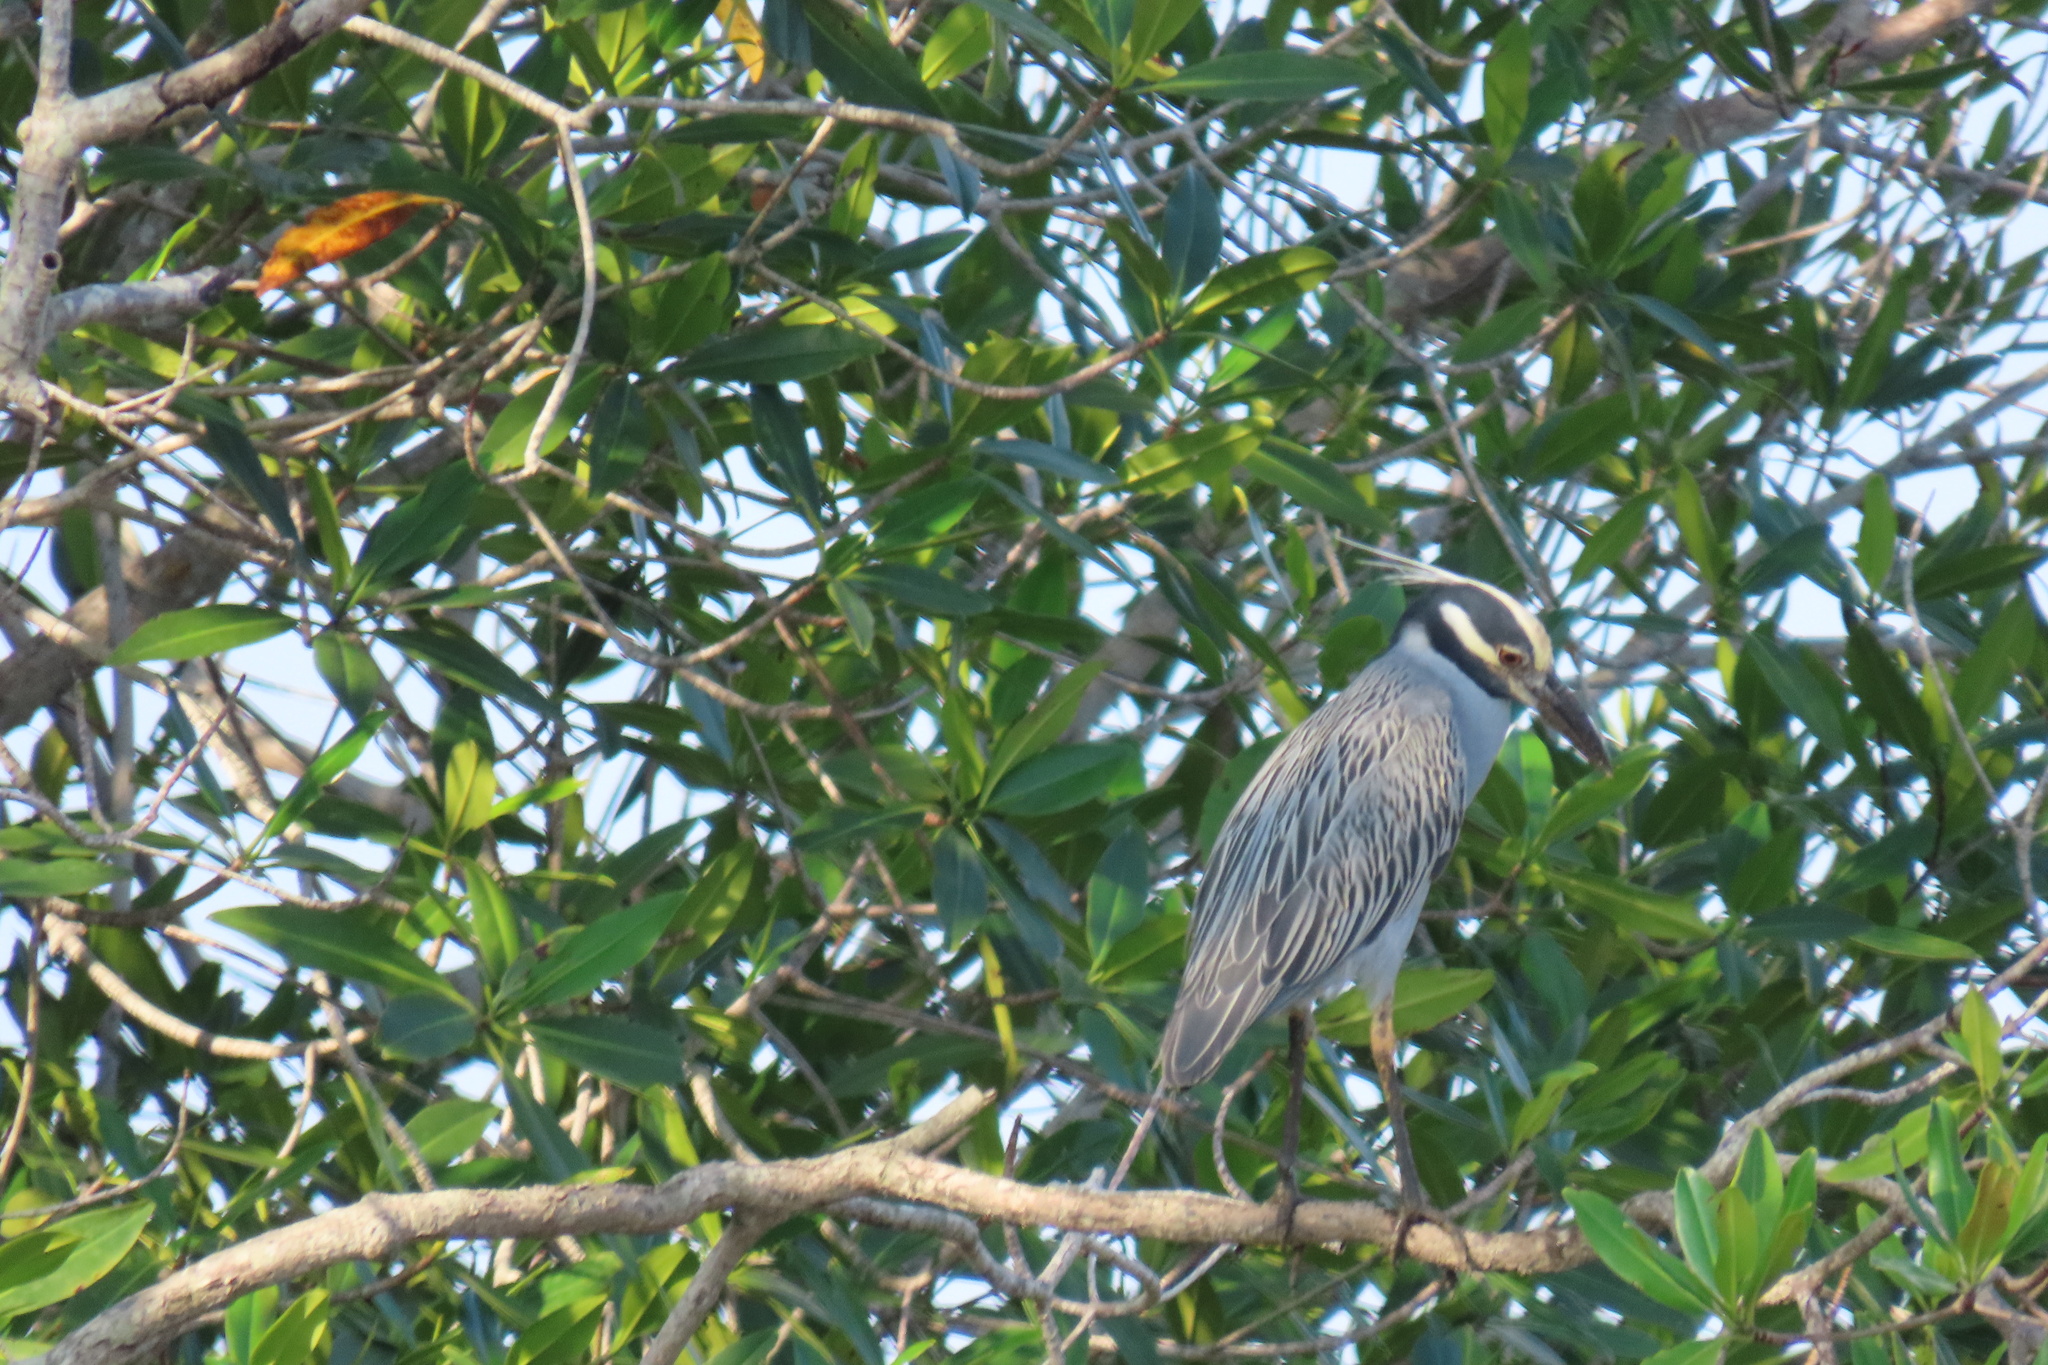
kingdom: Animalia
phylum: Chordata
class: Aves
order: Pelecaniformes
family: Ardeidae
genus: Nyctanassa
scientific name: Nyctanassa violacea
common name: Yellow-crowned night heron
